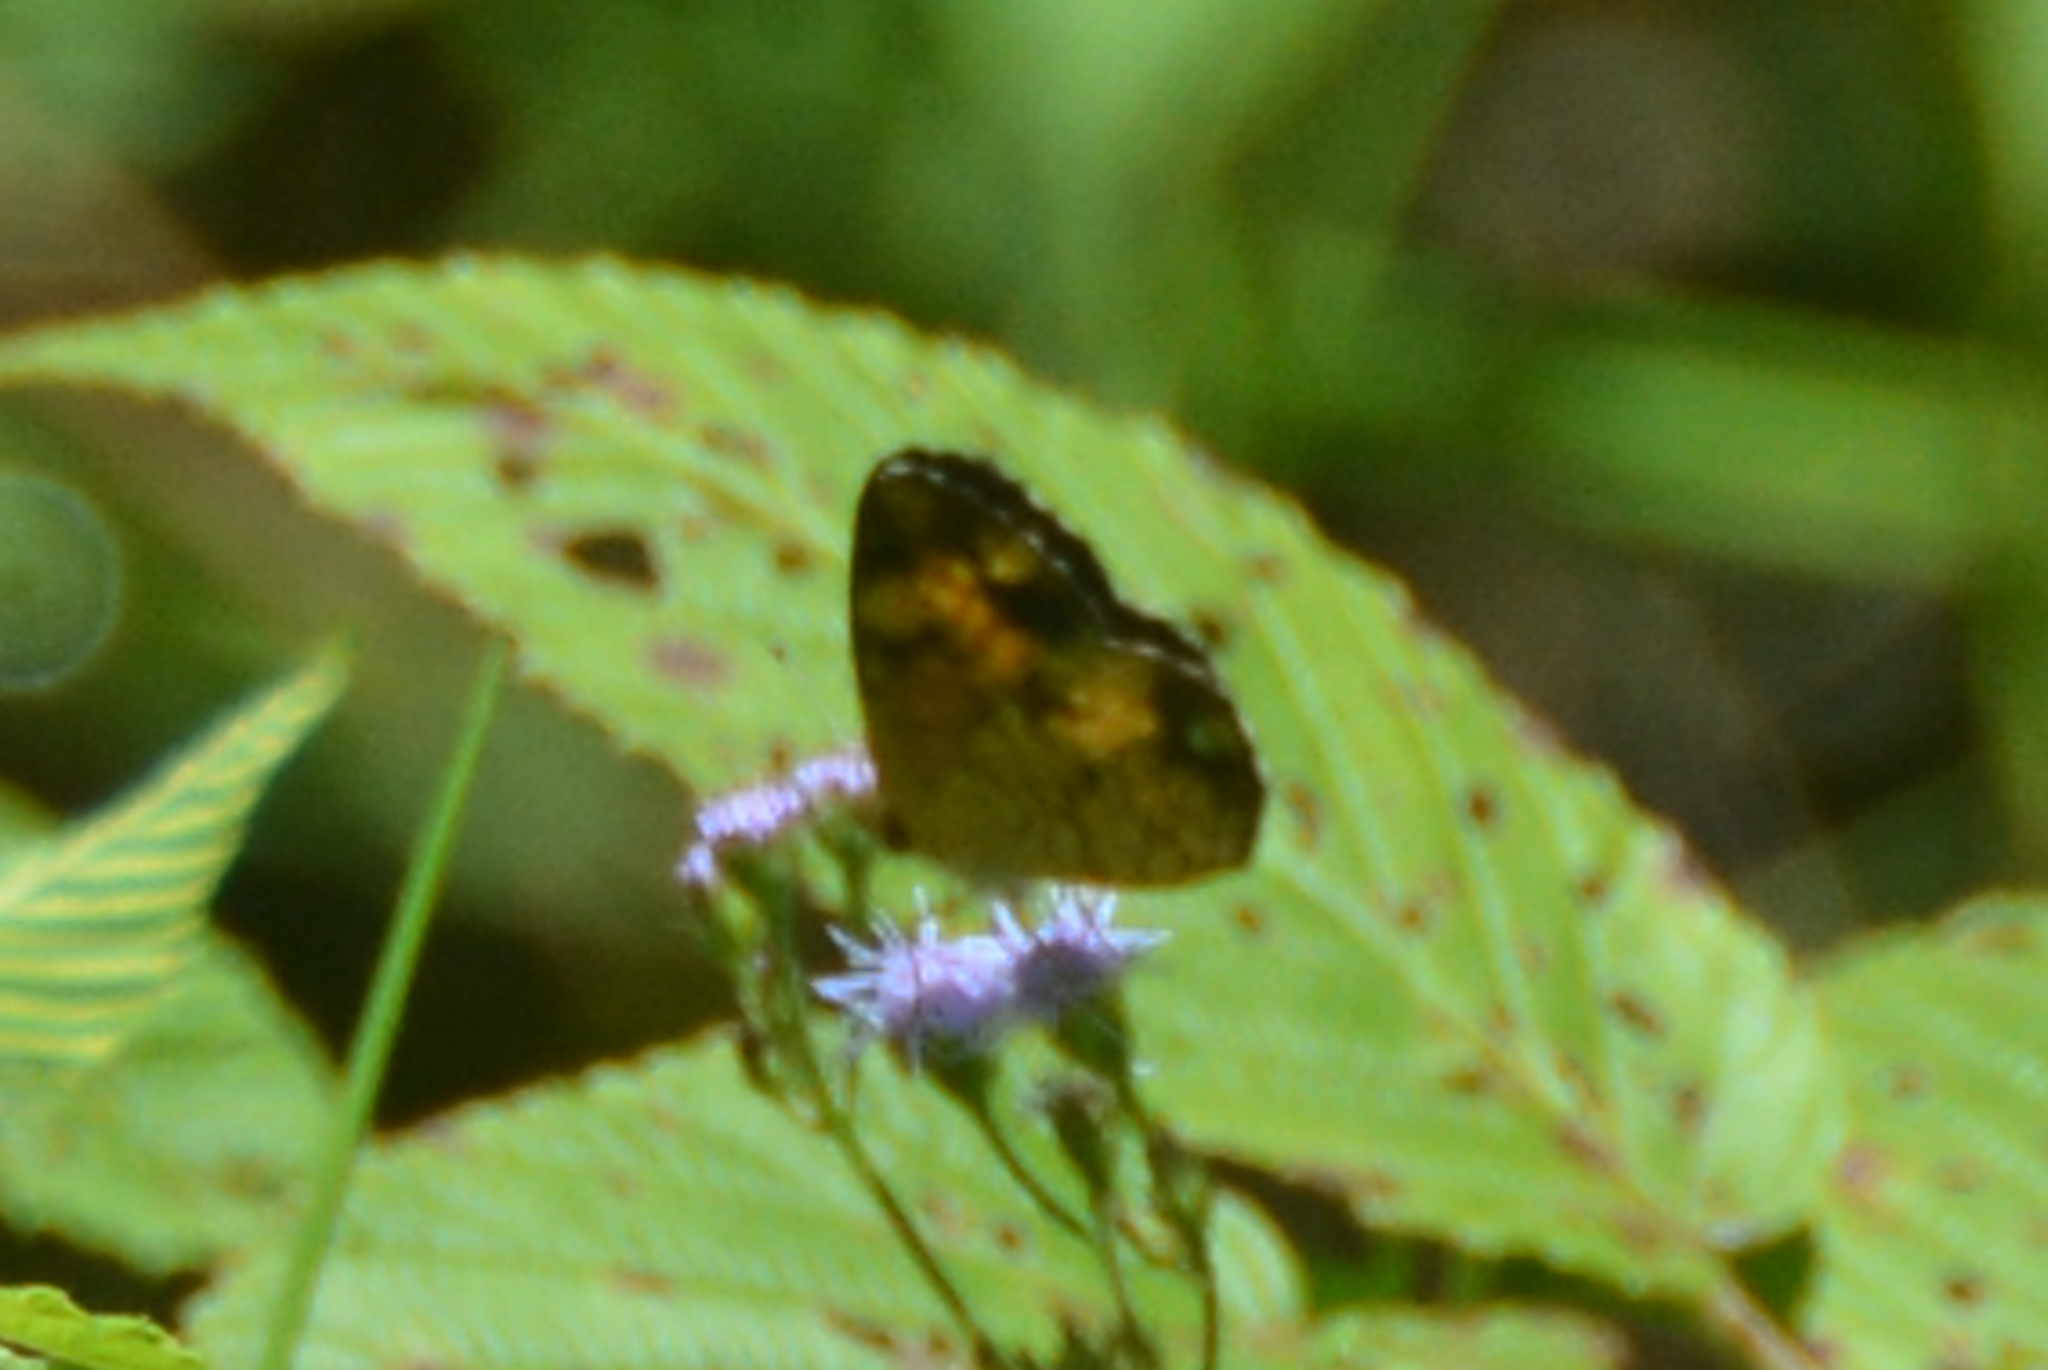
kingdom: Animalia
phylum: Arthropoda
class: Insecta
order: Lepidoptera
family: Nymphalidae
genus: Phyciodes
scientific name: Phyciodes tharos
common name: Pearl crescent
